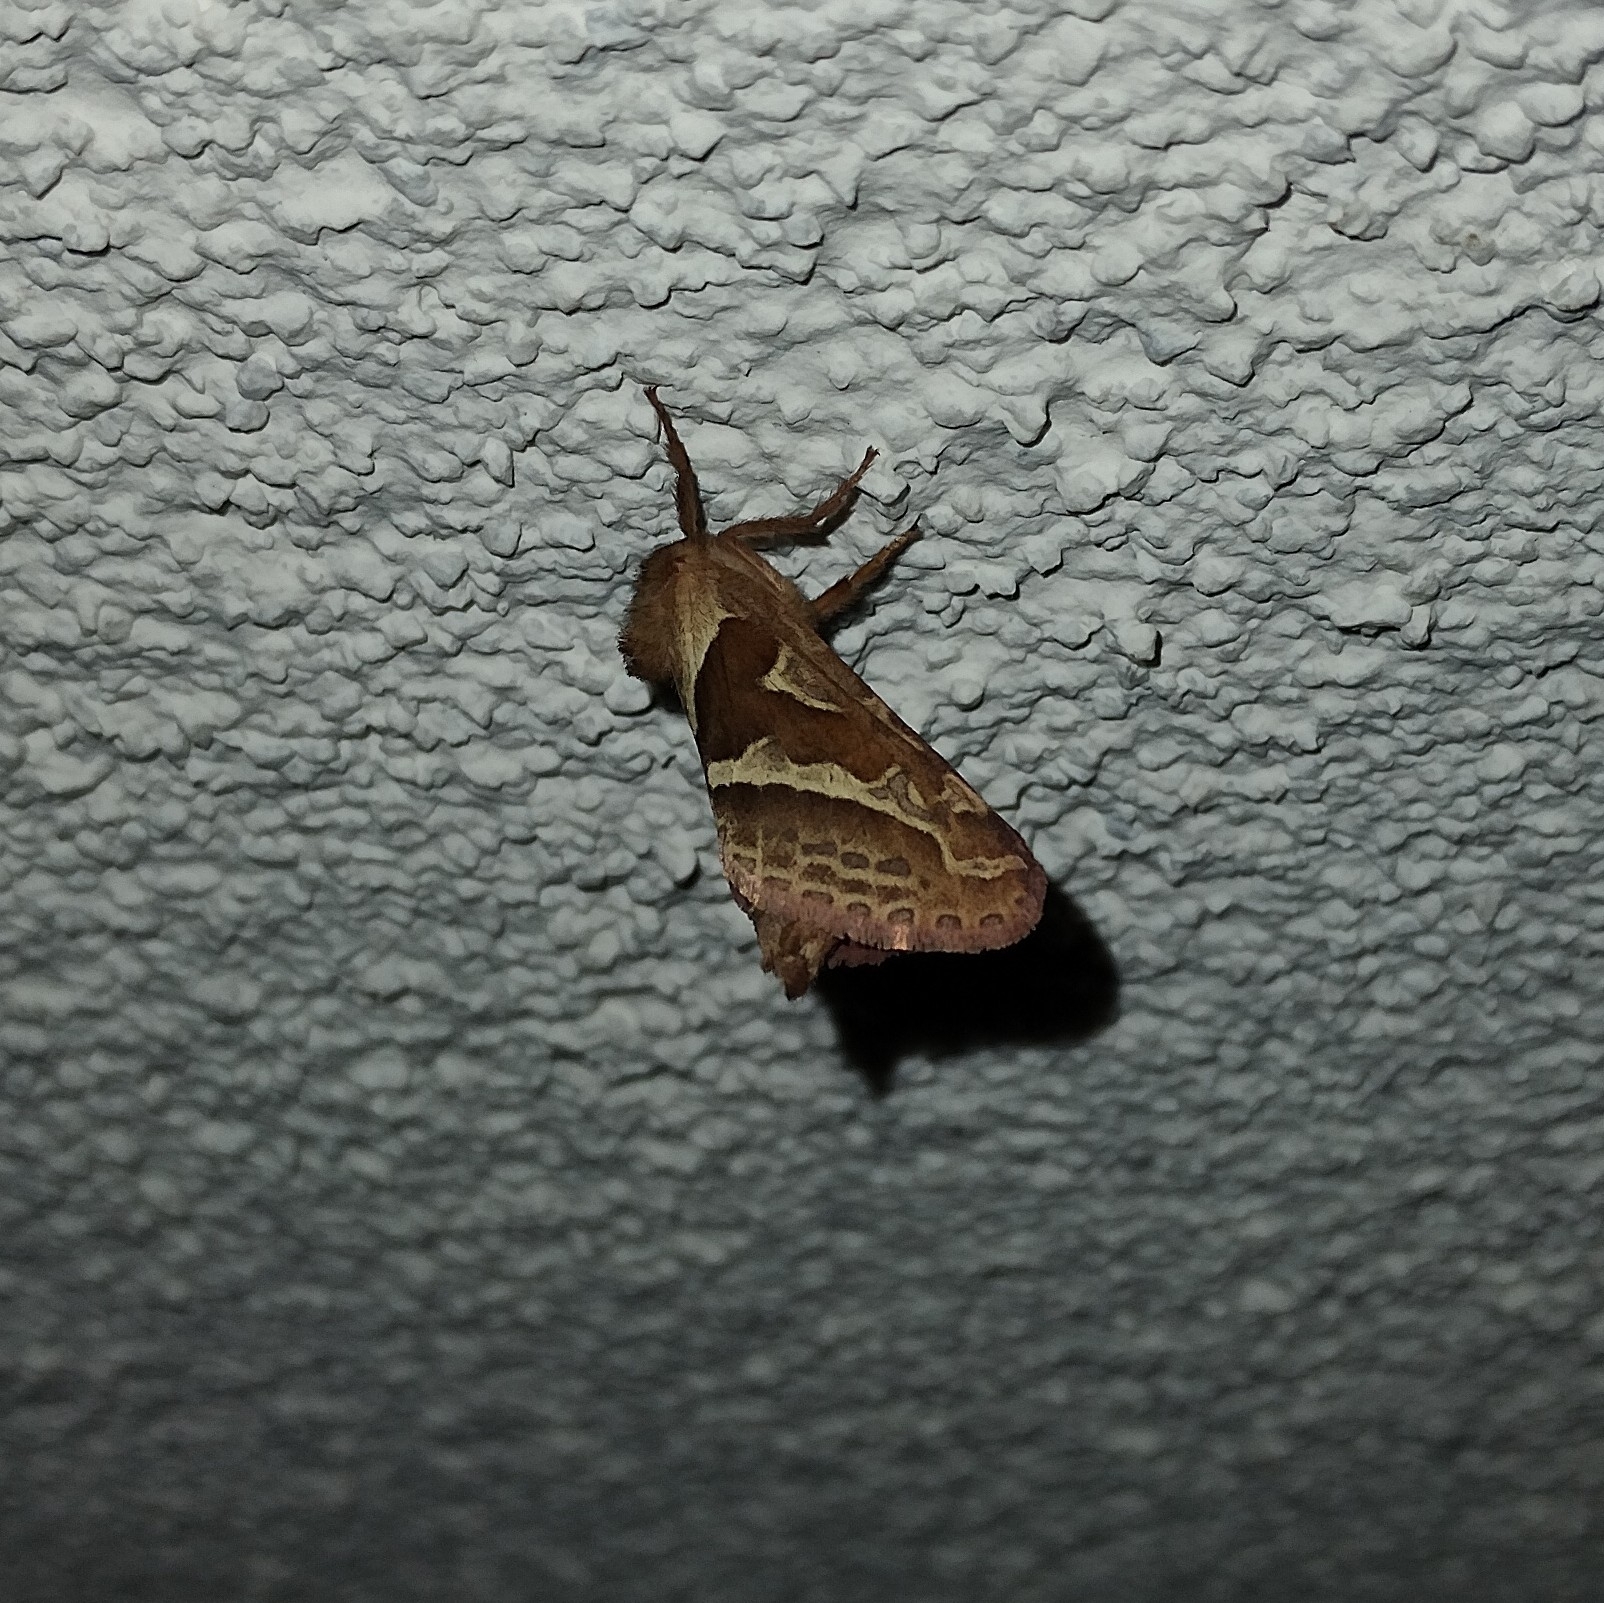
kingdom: Animalia
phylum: Arthropoda
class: Insecta
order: Lepidoptera
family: Hepialidae
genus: Triodia
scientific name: Triodia sylvina
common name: Orange swift
